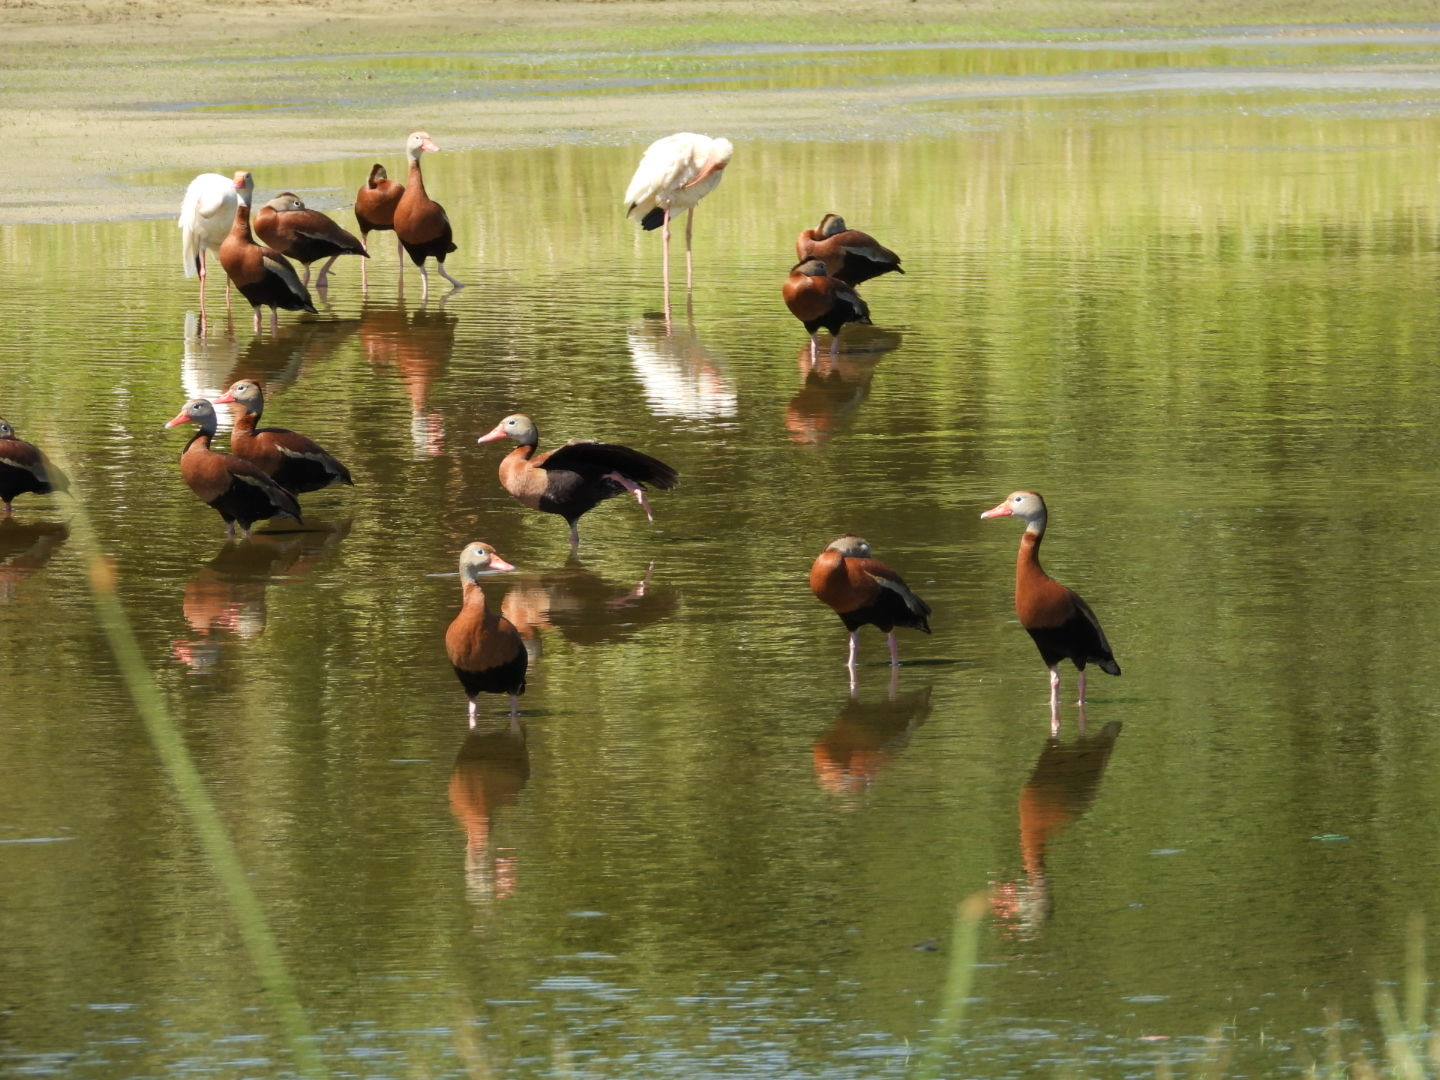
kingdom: Animalia
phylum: Chordata
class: Aves
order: Anseriformes
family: Anatidae
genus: Dendrocygna
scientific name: Dendrocygna autumnalis
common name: Black-bellied whistling duck
